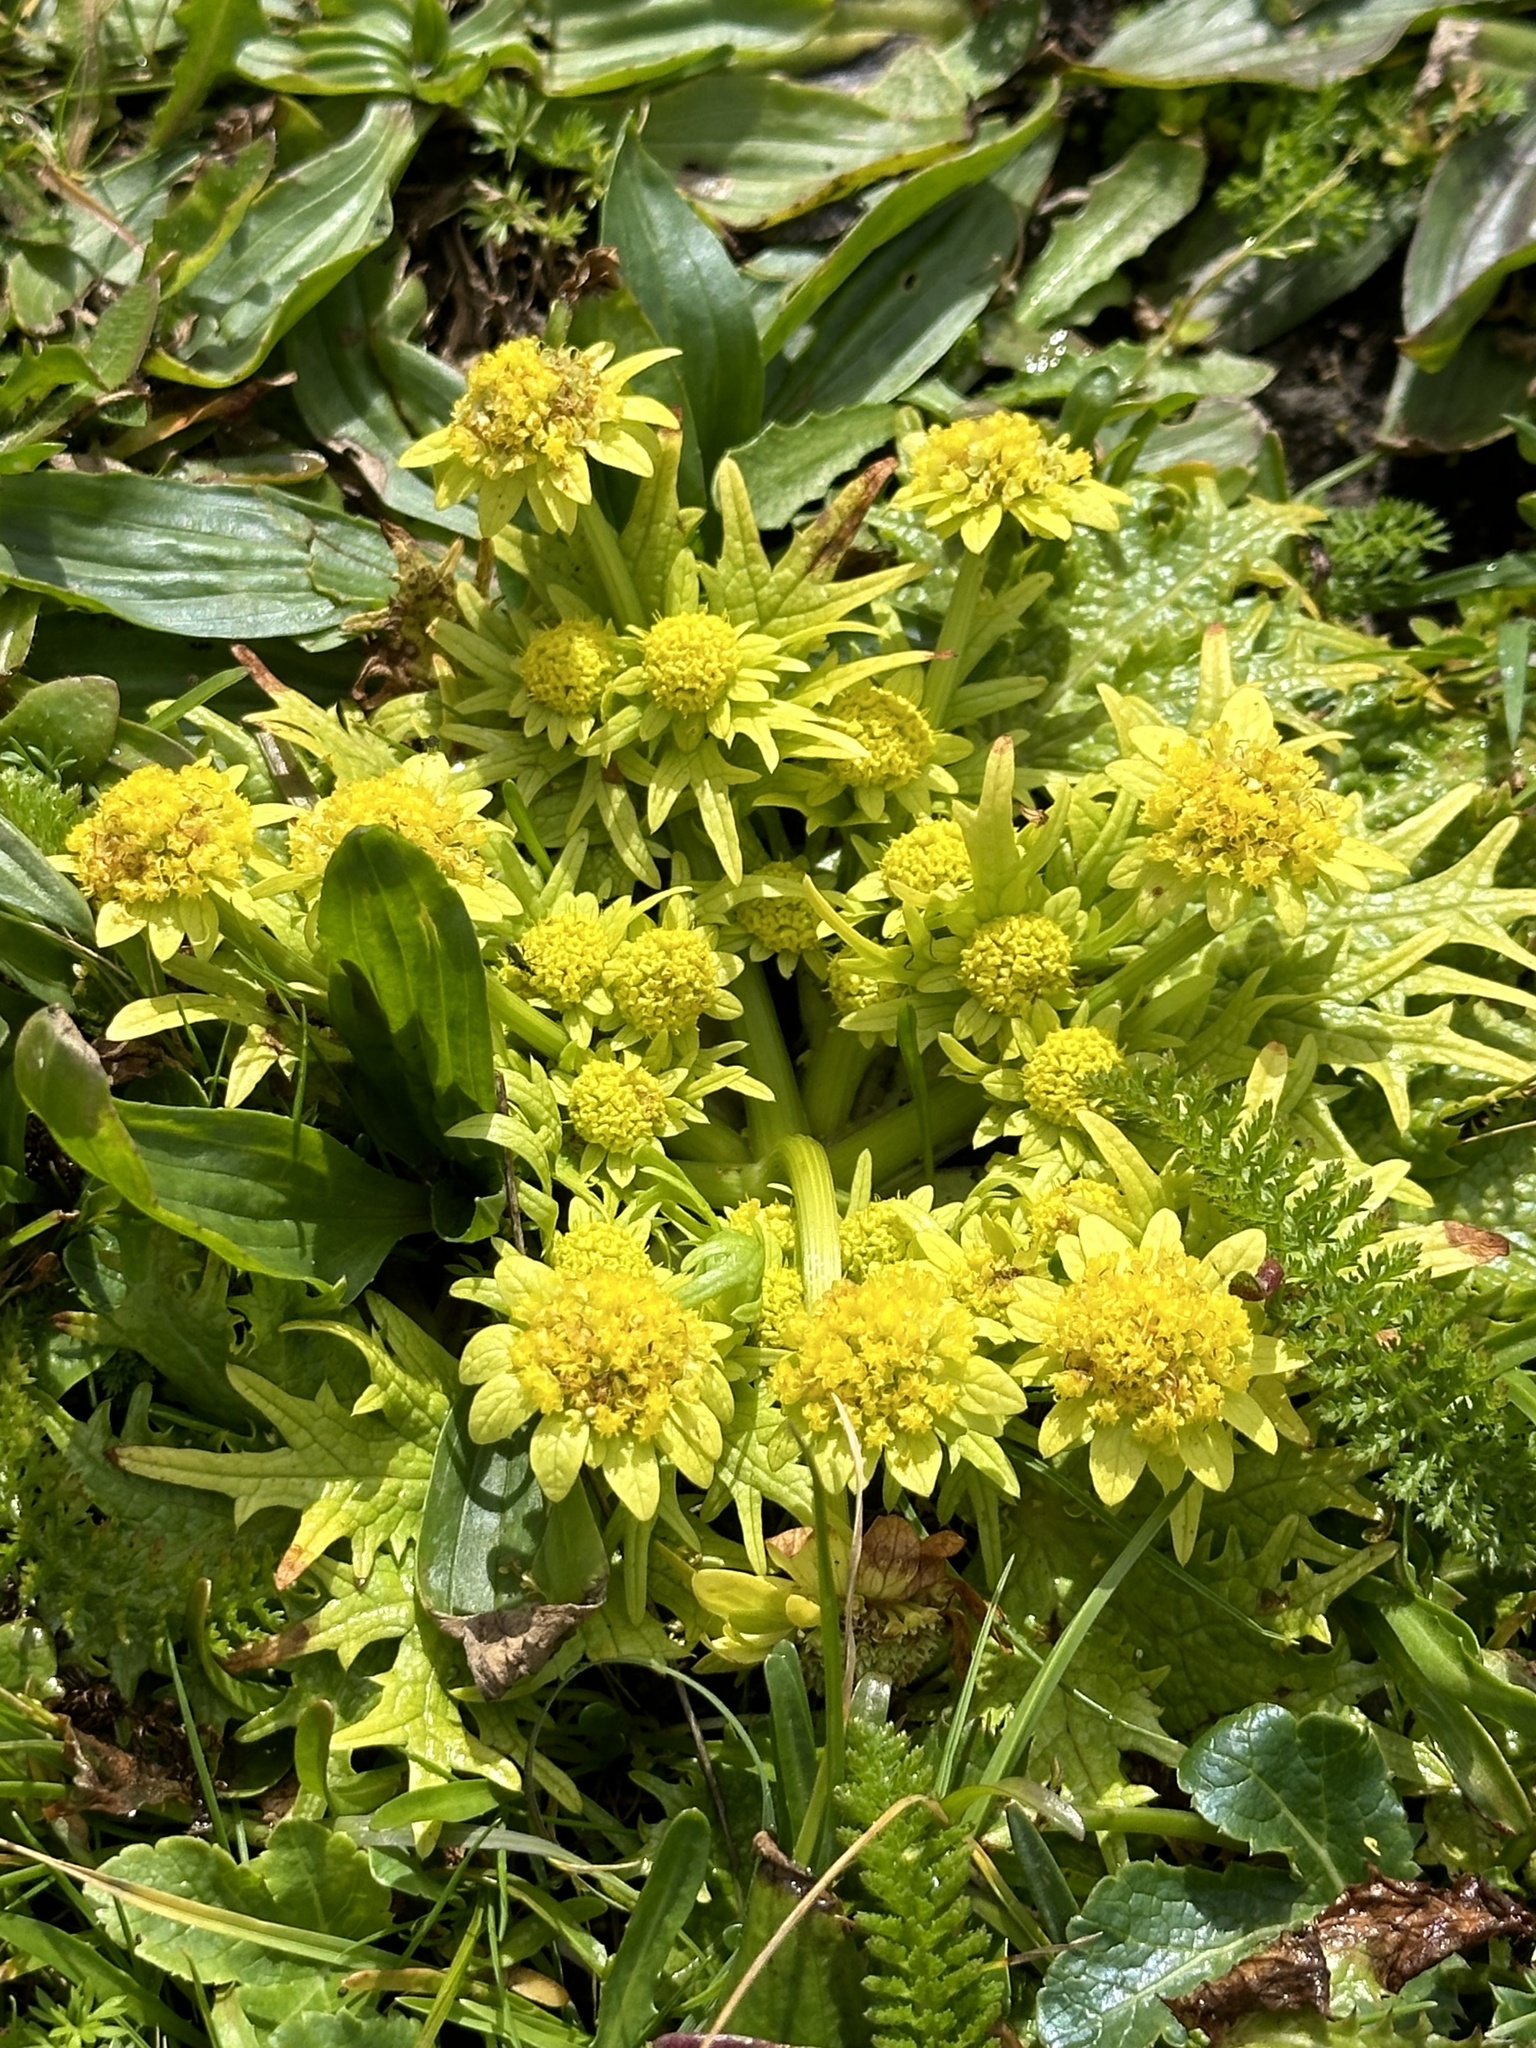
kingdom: Plantae
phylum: Tracheophyta
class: Magnoliopsida
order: Apiales
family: Apiaceae
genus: Sanicula
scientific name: Sanicula arctopoides
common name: Footsteps-of-spring
